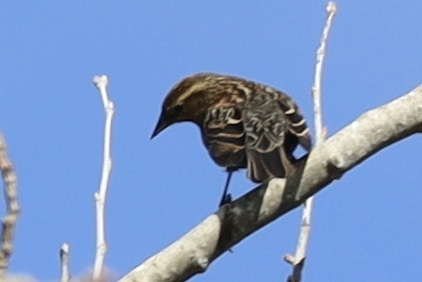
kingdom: Animalia
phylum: Chordata
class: Aves
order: Passeriformes
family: Icteridae
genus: Agelaius
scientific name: Agelaius phoeniceus
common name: Red-winged blackbird
